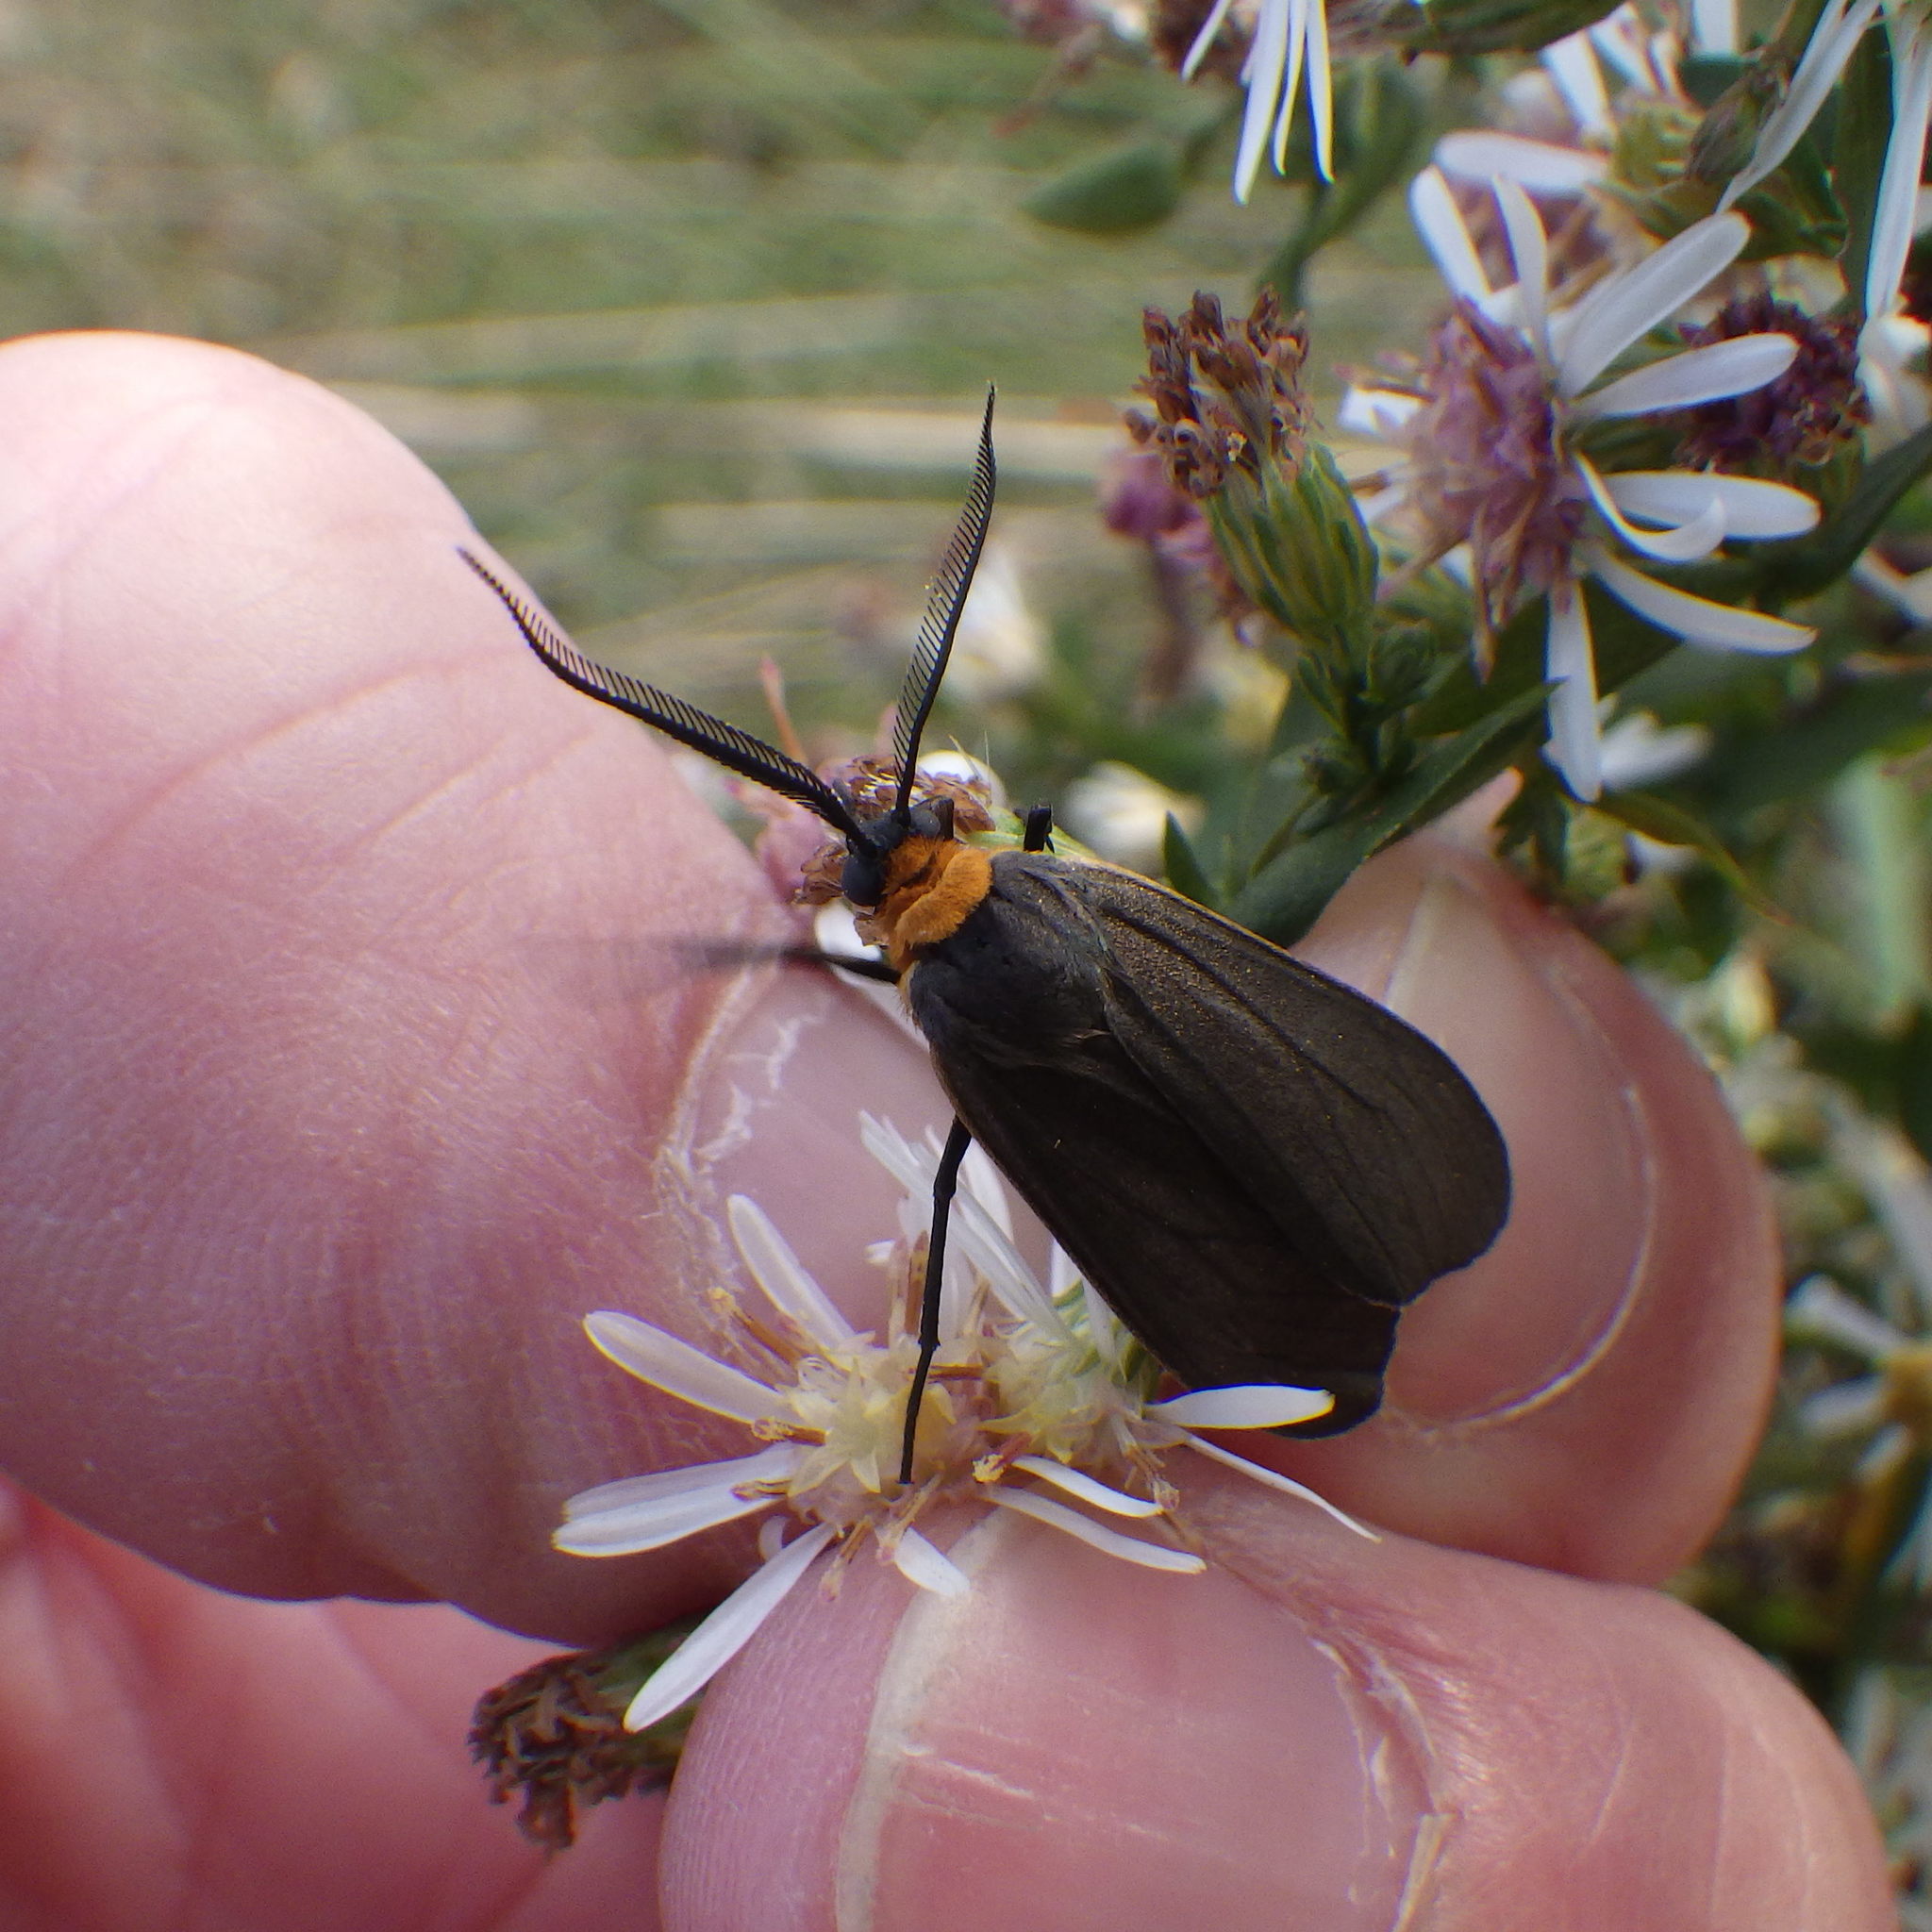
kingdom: Animalia
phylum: Arthropoda
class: Insecta
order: Lepidoptera
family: Erebidae
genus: Cisseps
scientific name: Cisseps fulvicollis
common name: Yellow-collared scape moth
